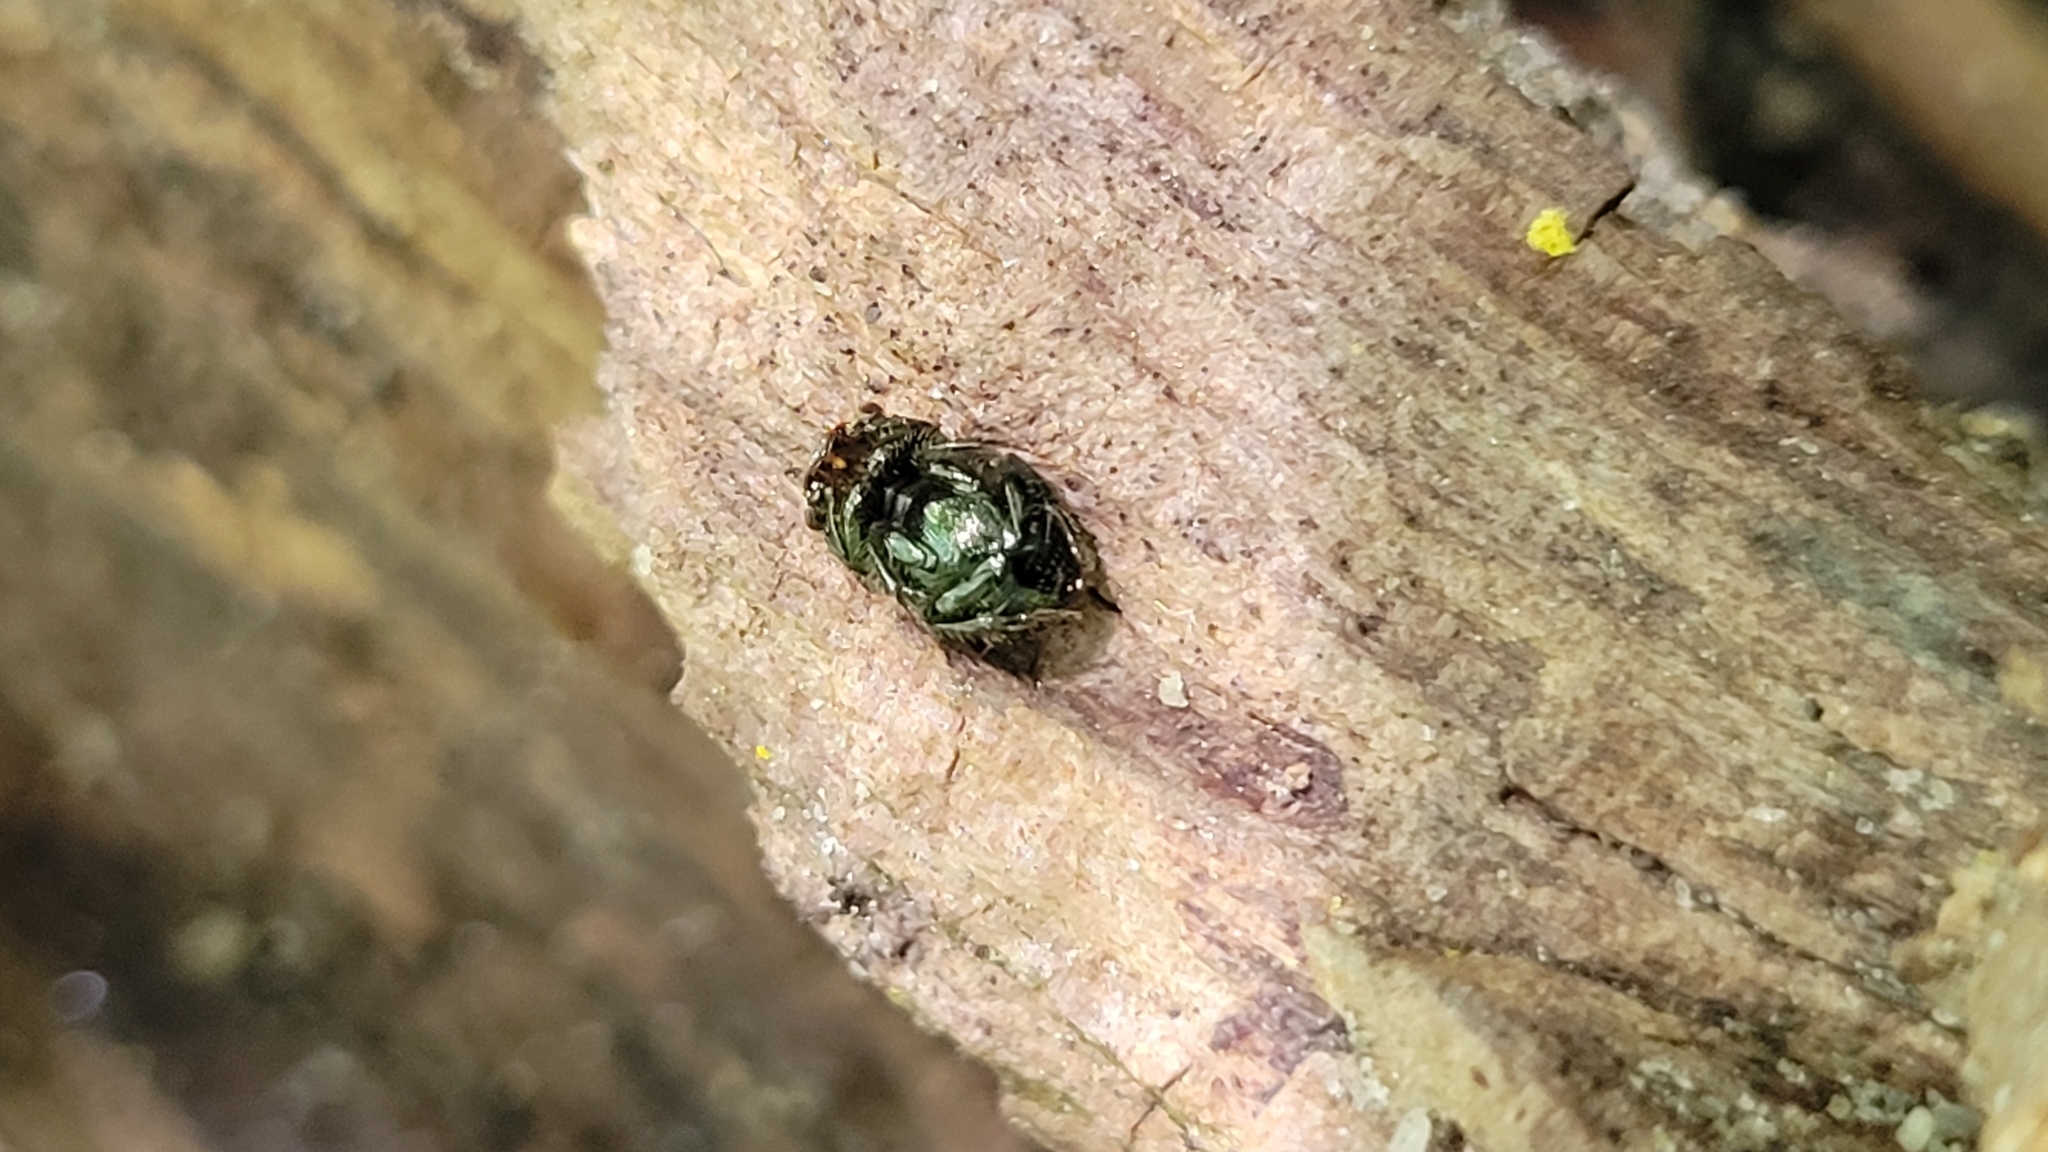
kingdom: Animalia
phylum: Arthropoda
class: Insecta
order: Coleoptera
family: Scarabaeidae
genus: Onthophagus
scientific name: Onthophagus orpheus
